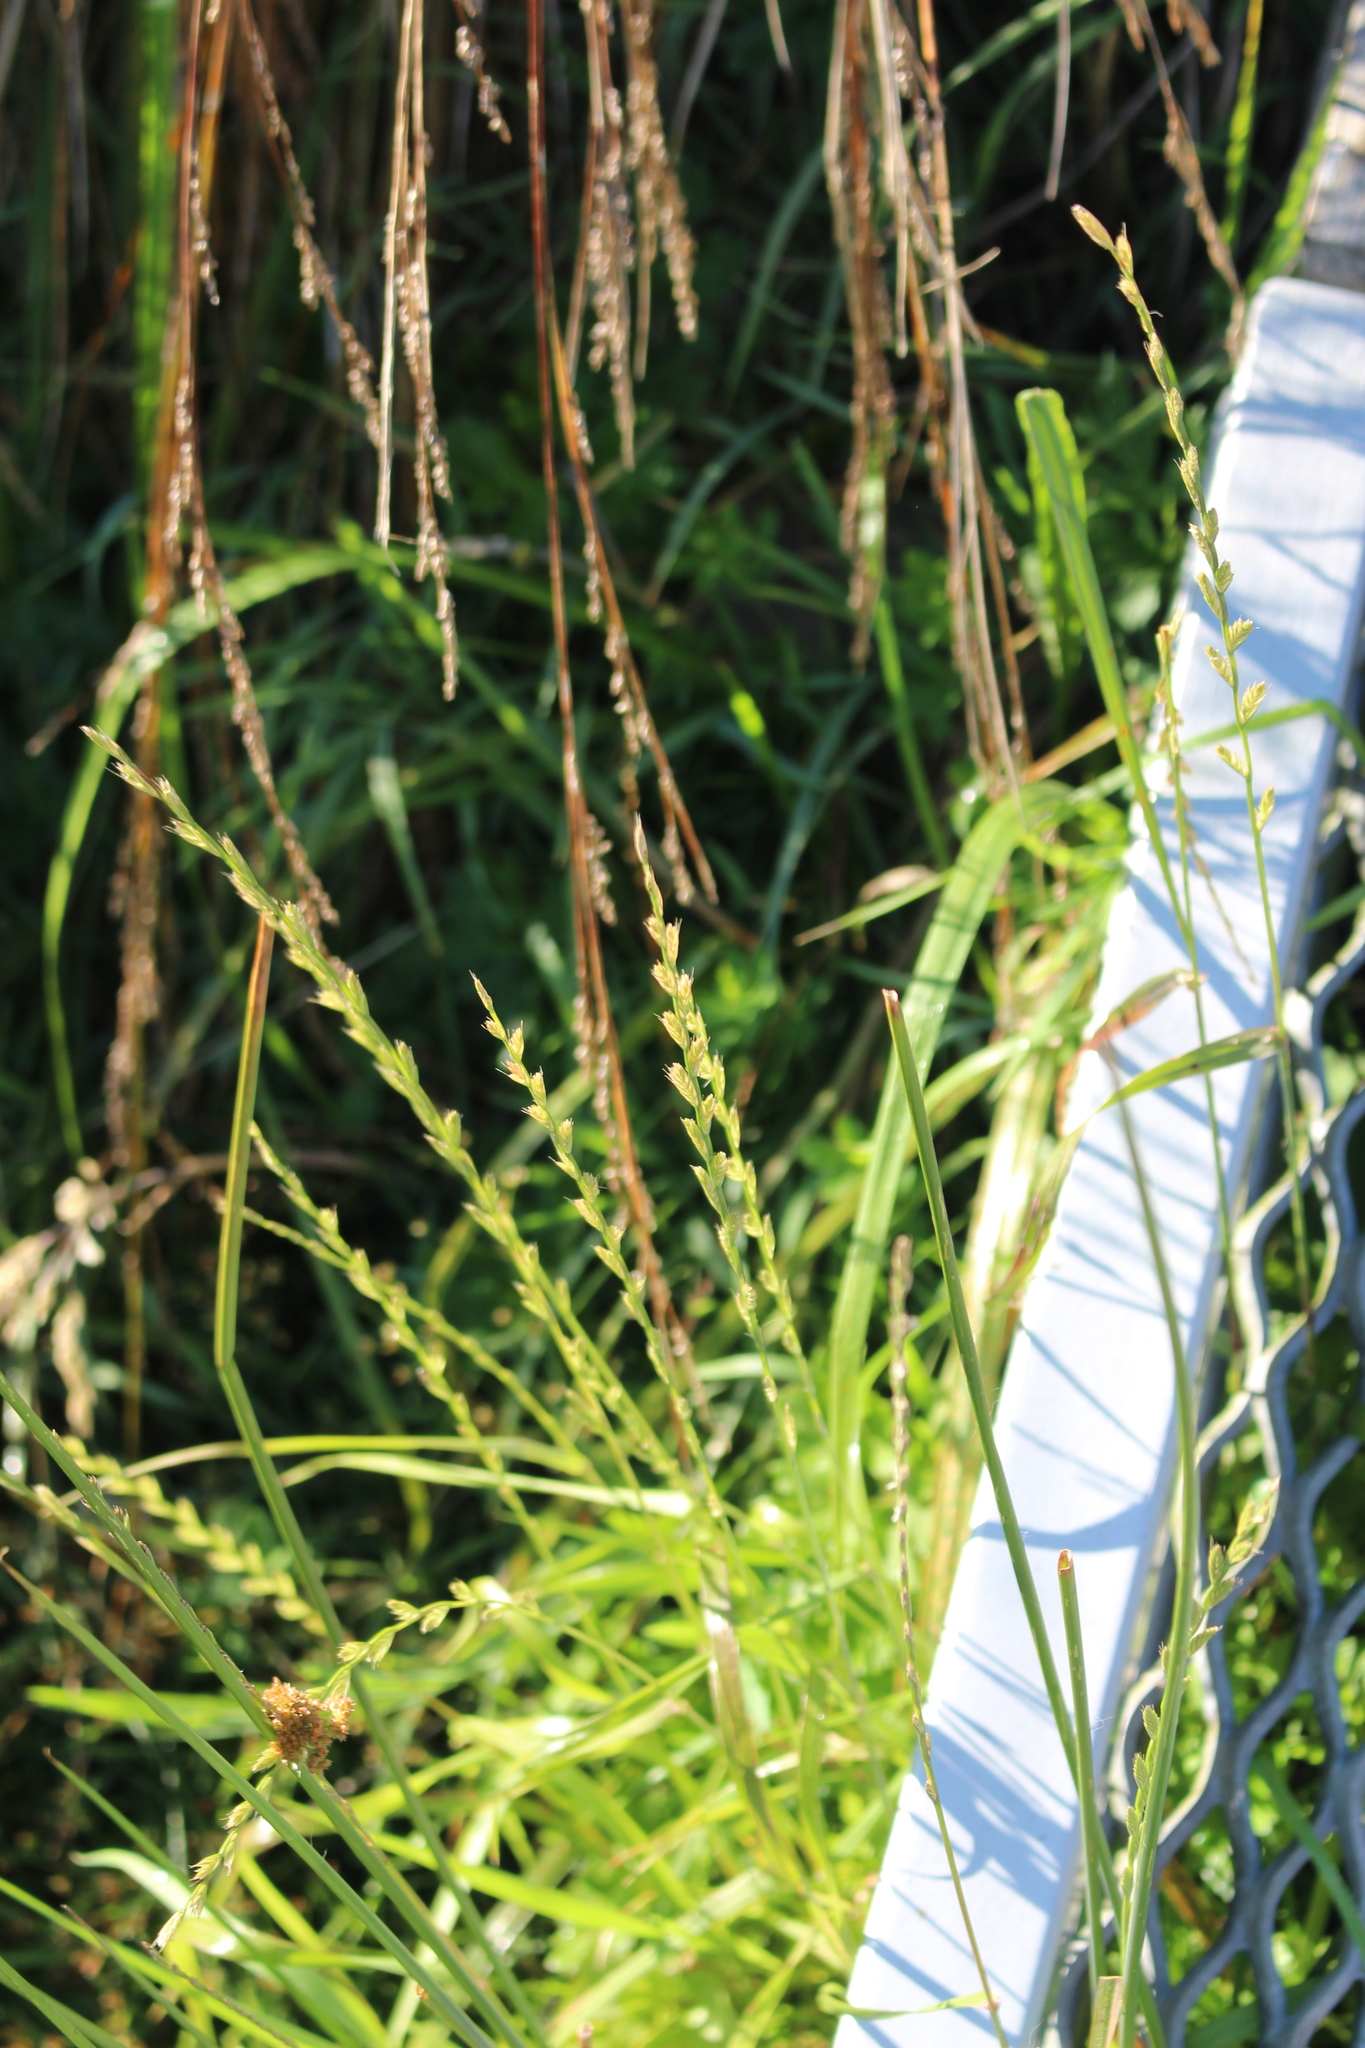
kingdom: Plantae
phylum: Tracheophyta
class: Liliopsida
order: Poales
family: Poaceae
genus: Lolium
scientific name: Lolium multiflorum
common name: Annual ryegrass
